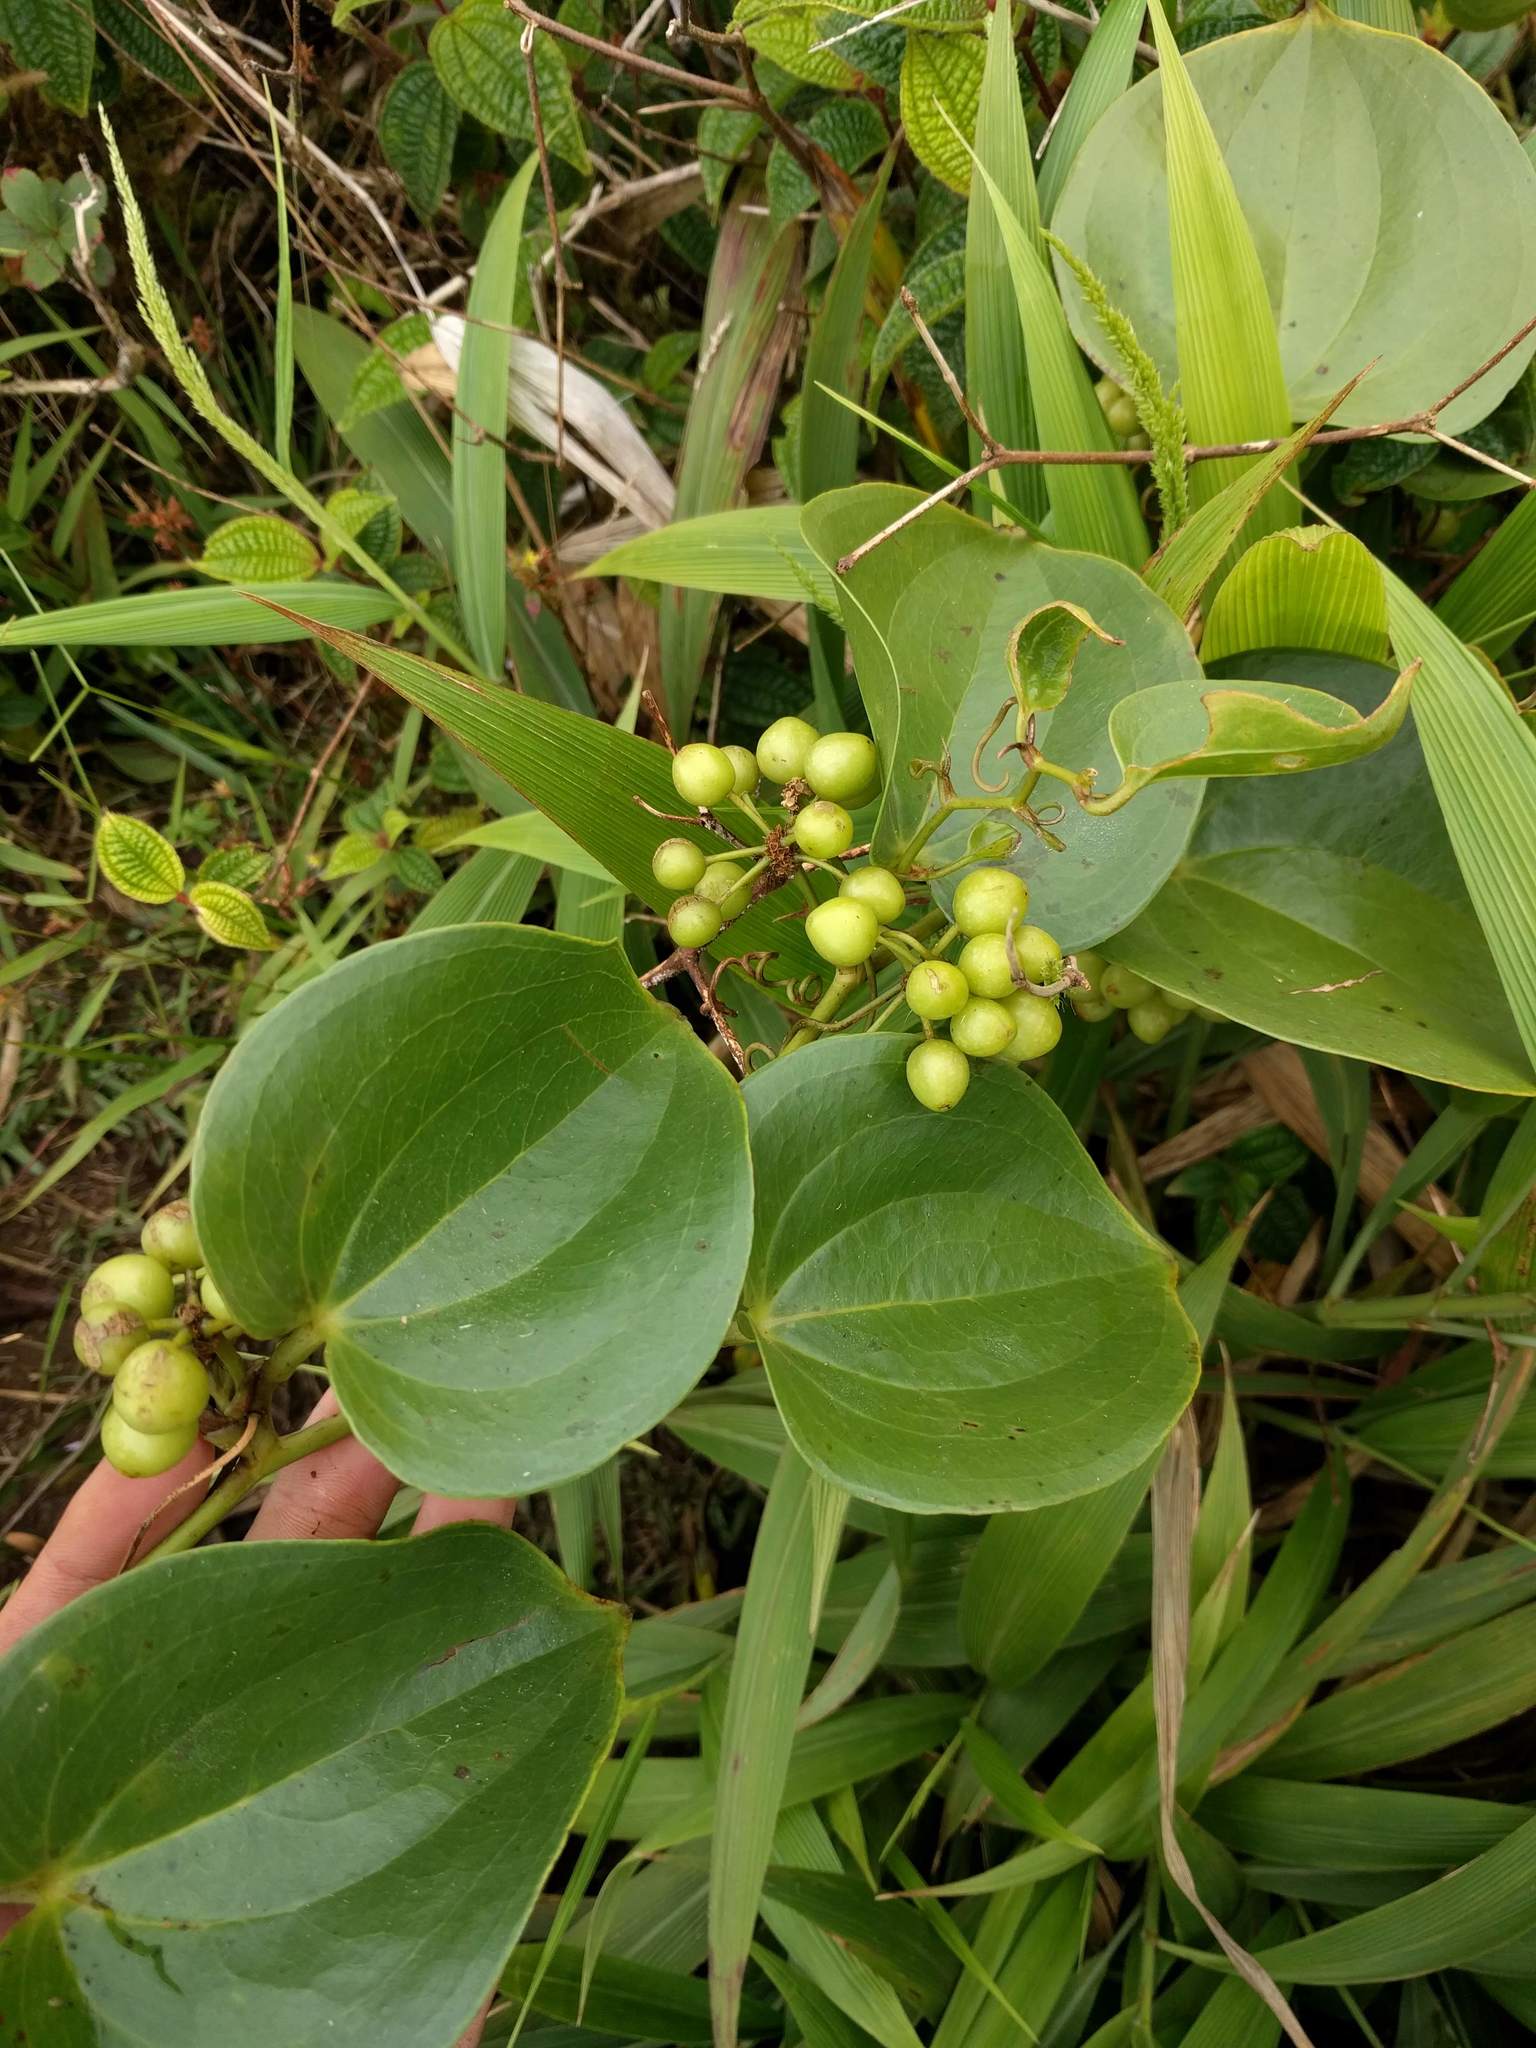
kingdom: Plantae
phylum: Tracheophyta
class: Liliopsida
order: Liliales
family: Smilacaceae
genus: Smilax
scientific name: Smilax melastomifolia
